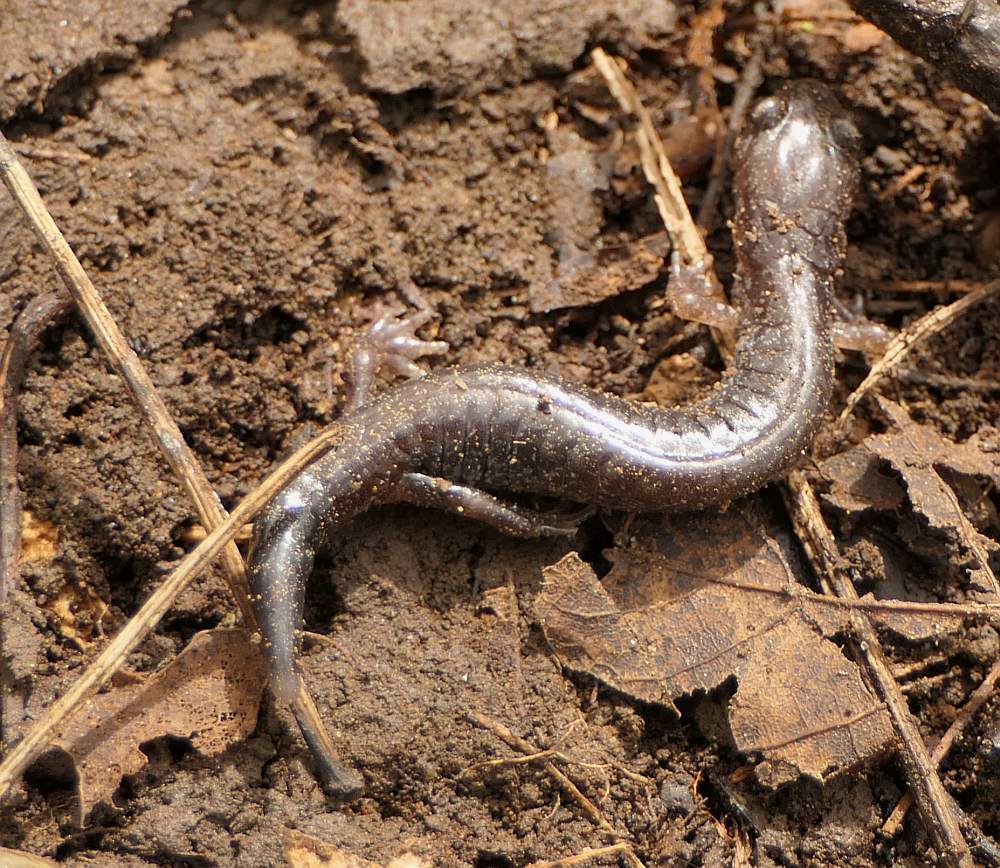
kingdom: Animalia
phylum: Chordata
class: Amphibia
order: Caudata
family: Plethodontidae
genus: Plethodon
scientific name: Plethodon cinereus
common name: Redback salamander
